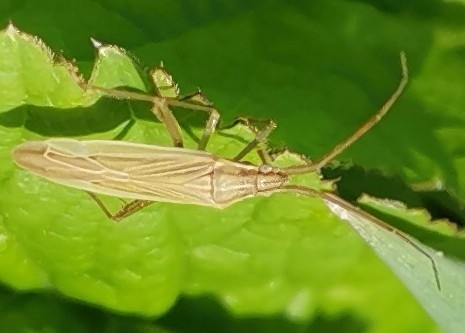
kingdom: Animalia
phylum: Arthropoda
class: Insecta
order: Hemiptera
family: Miridae
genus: Stenodema
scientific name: Stenodema calcarata
